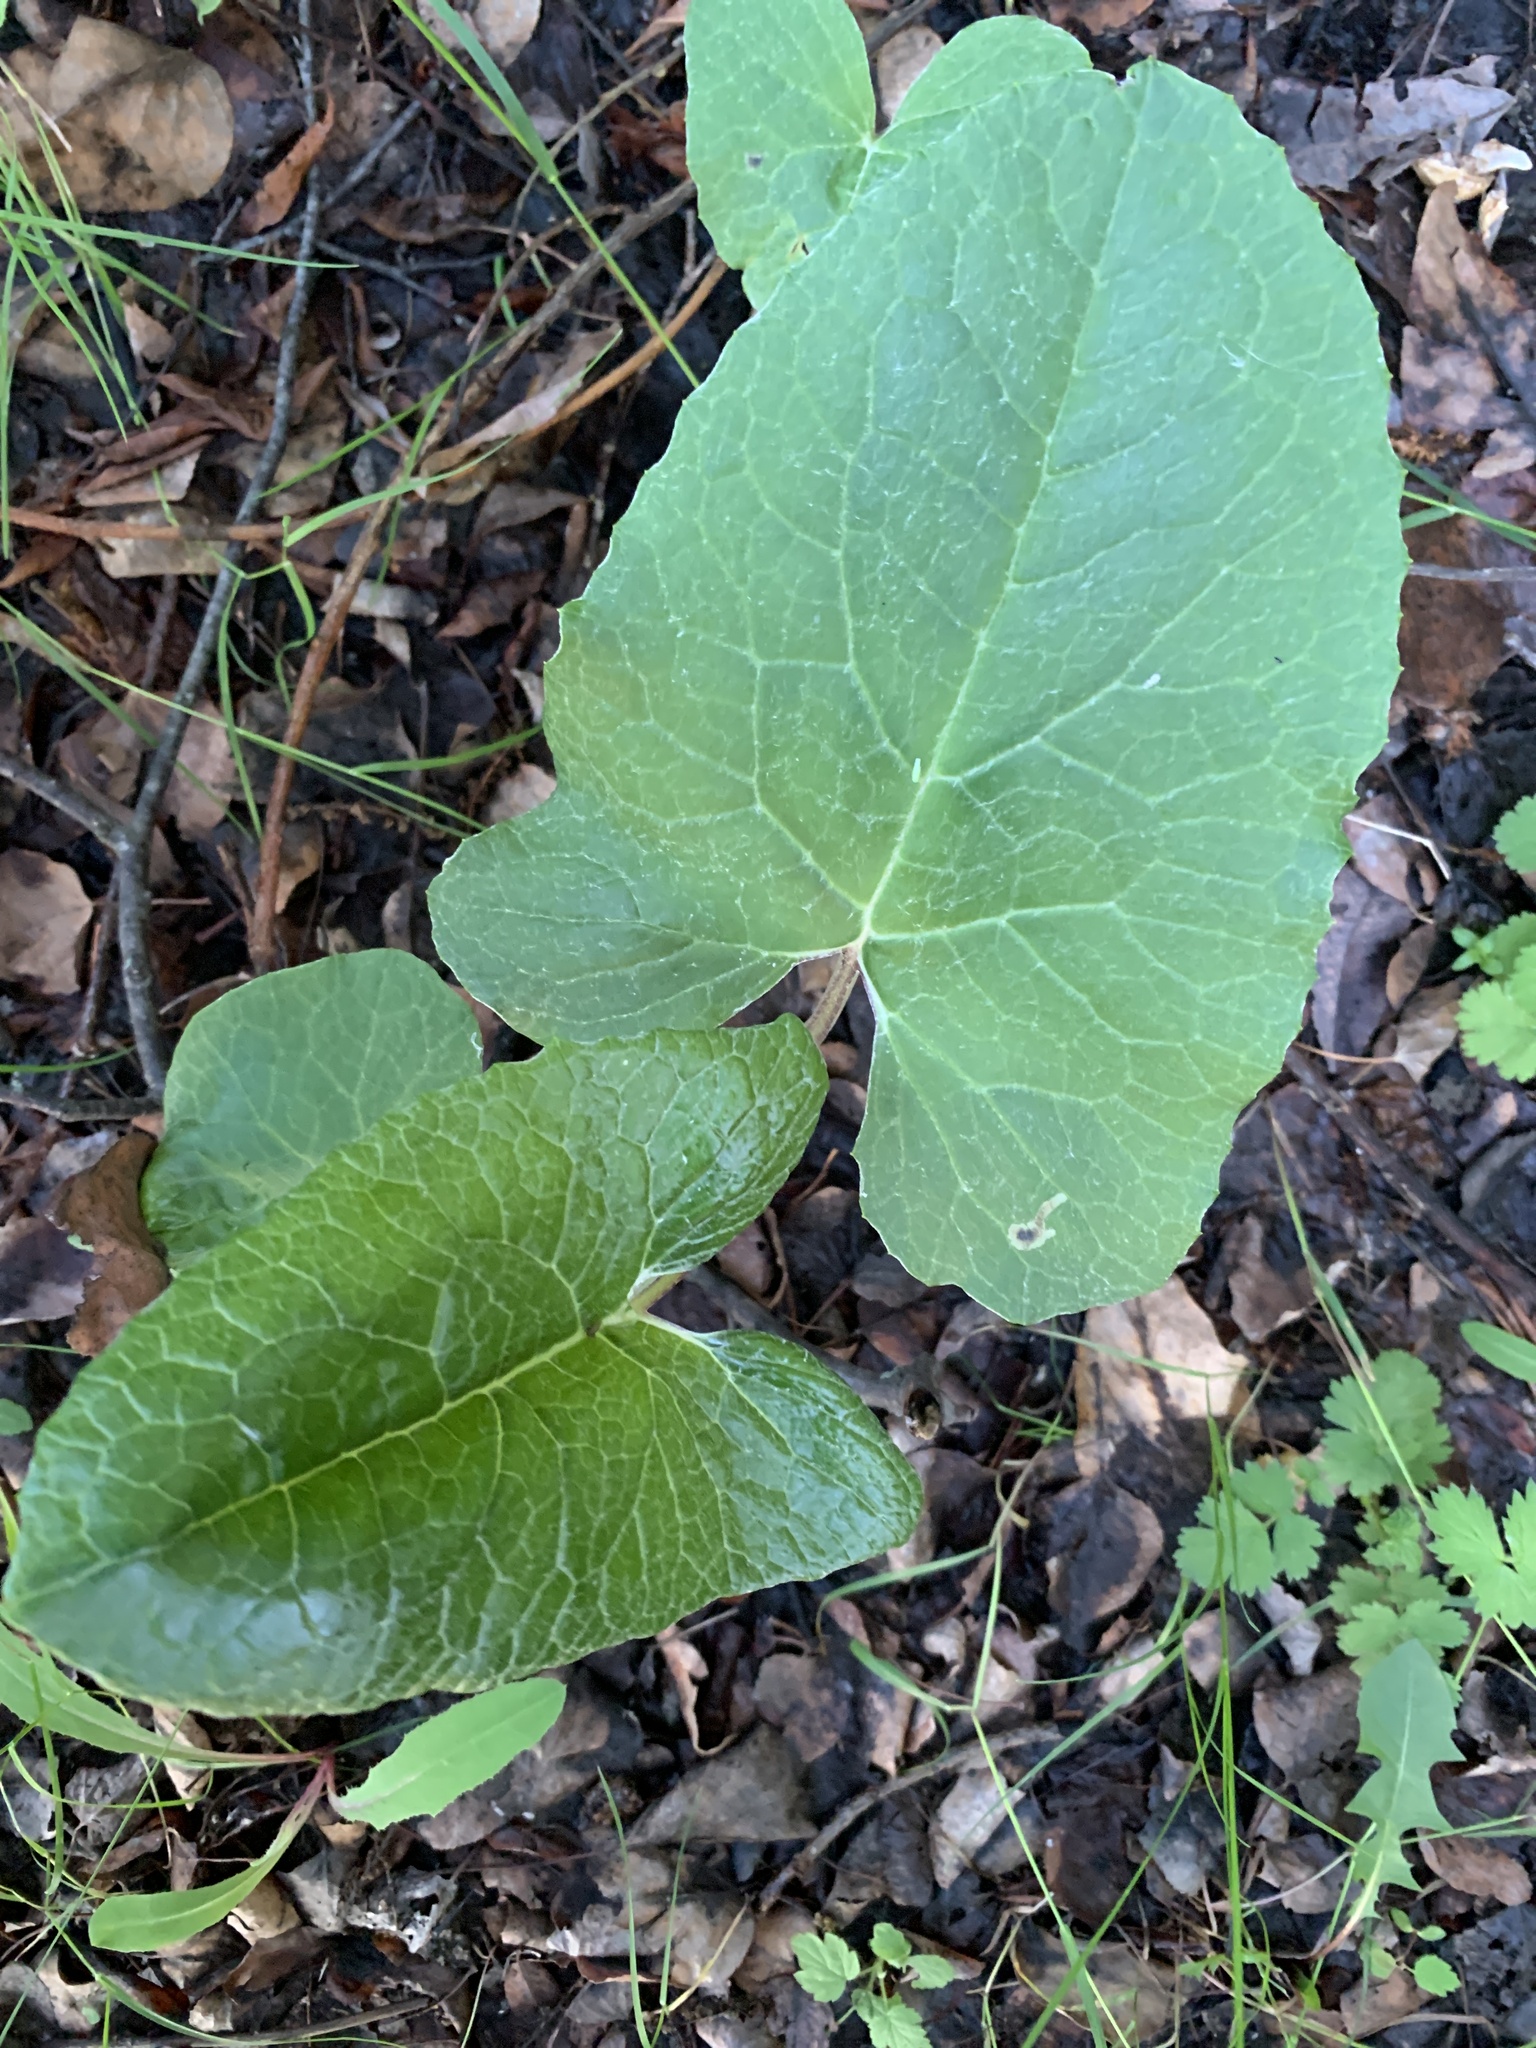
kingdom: Plantae
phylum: Tracheophyta
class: Magnoliopsida
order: Asterales
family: Asteraceae
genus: Petasites
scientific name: Petasites frigidus
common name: Arctic butterbur
